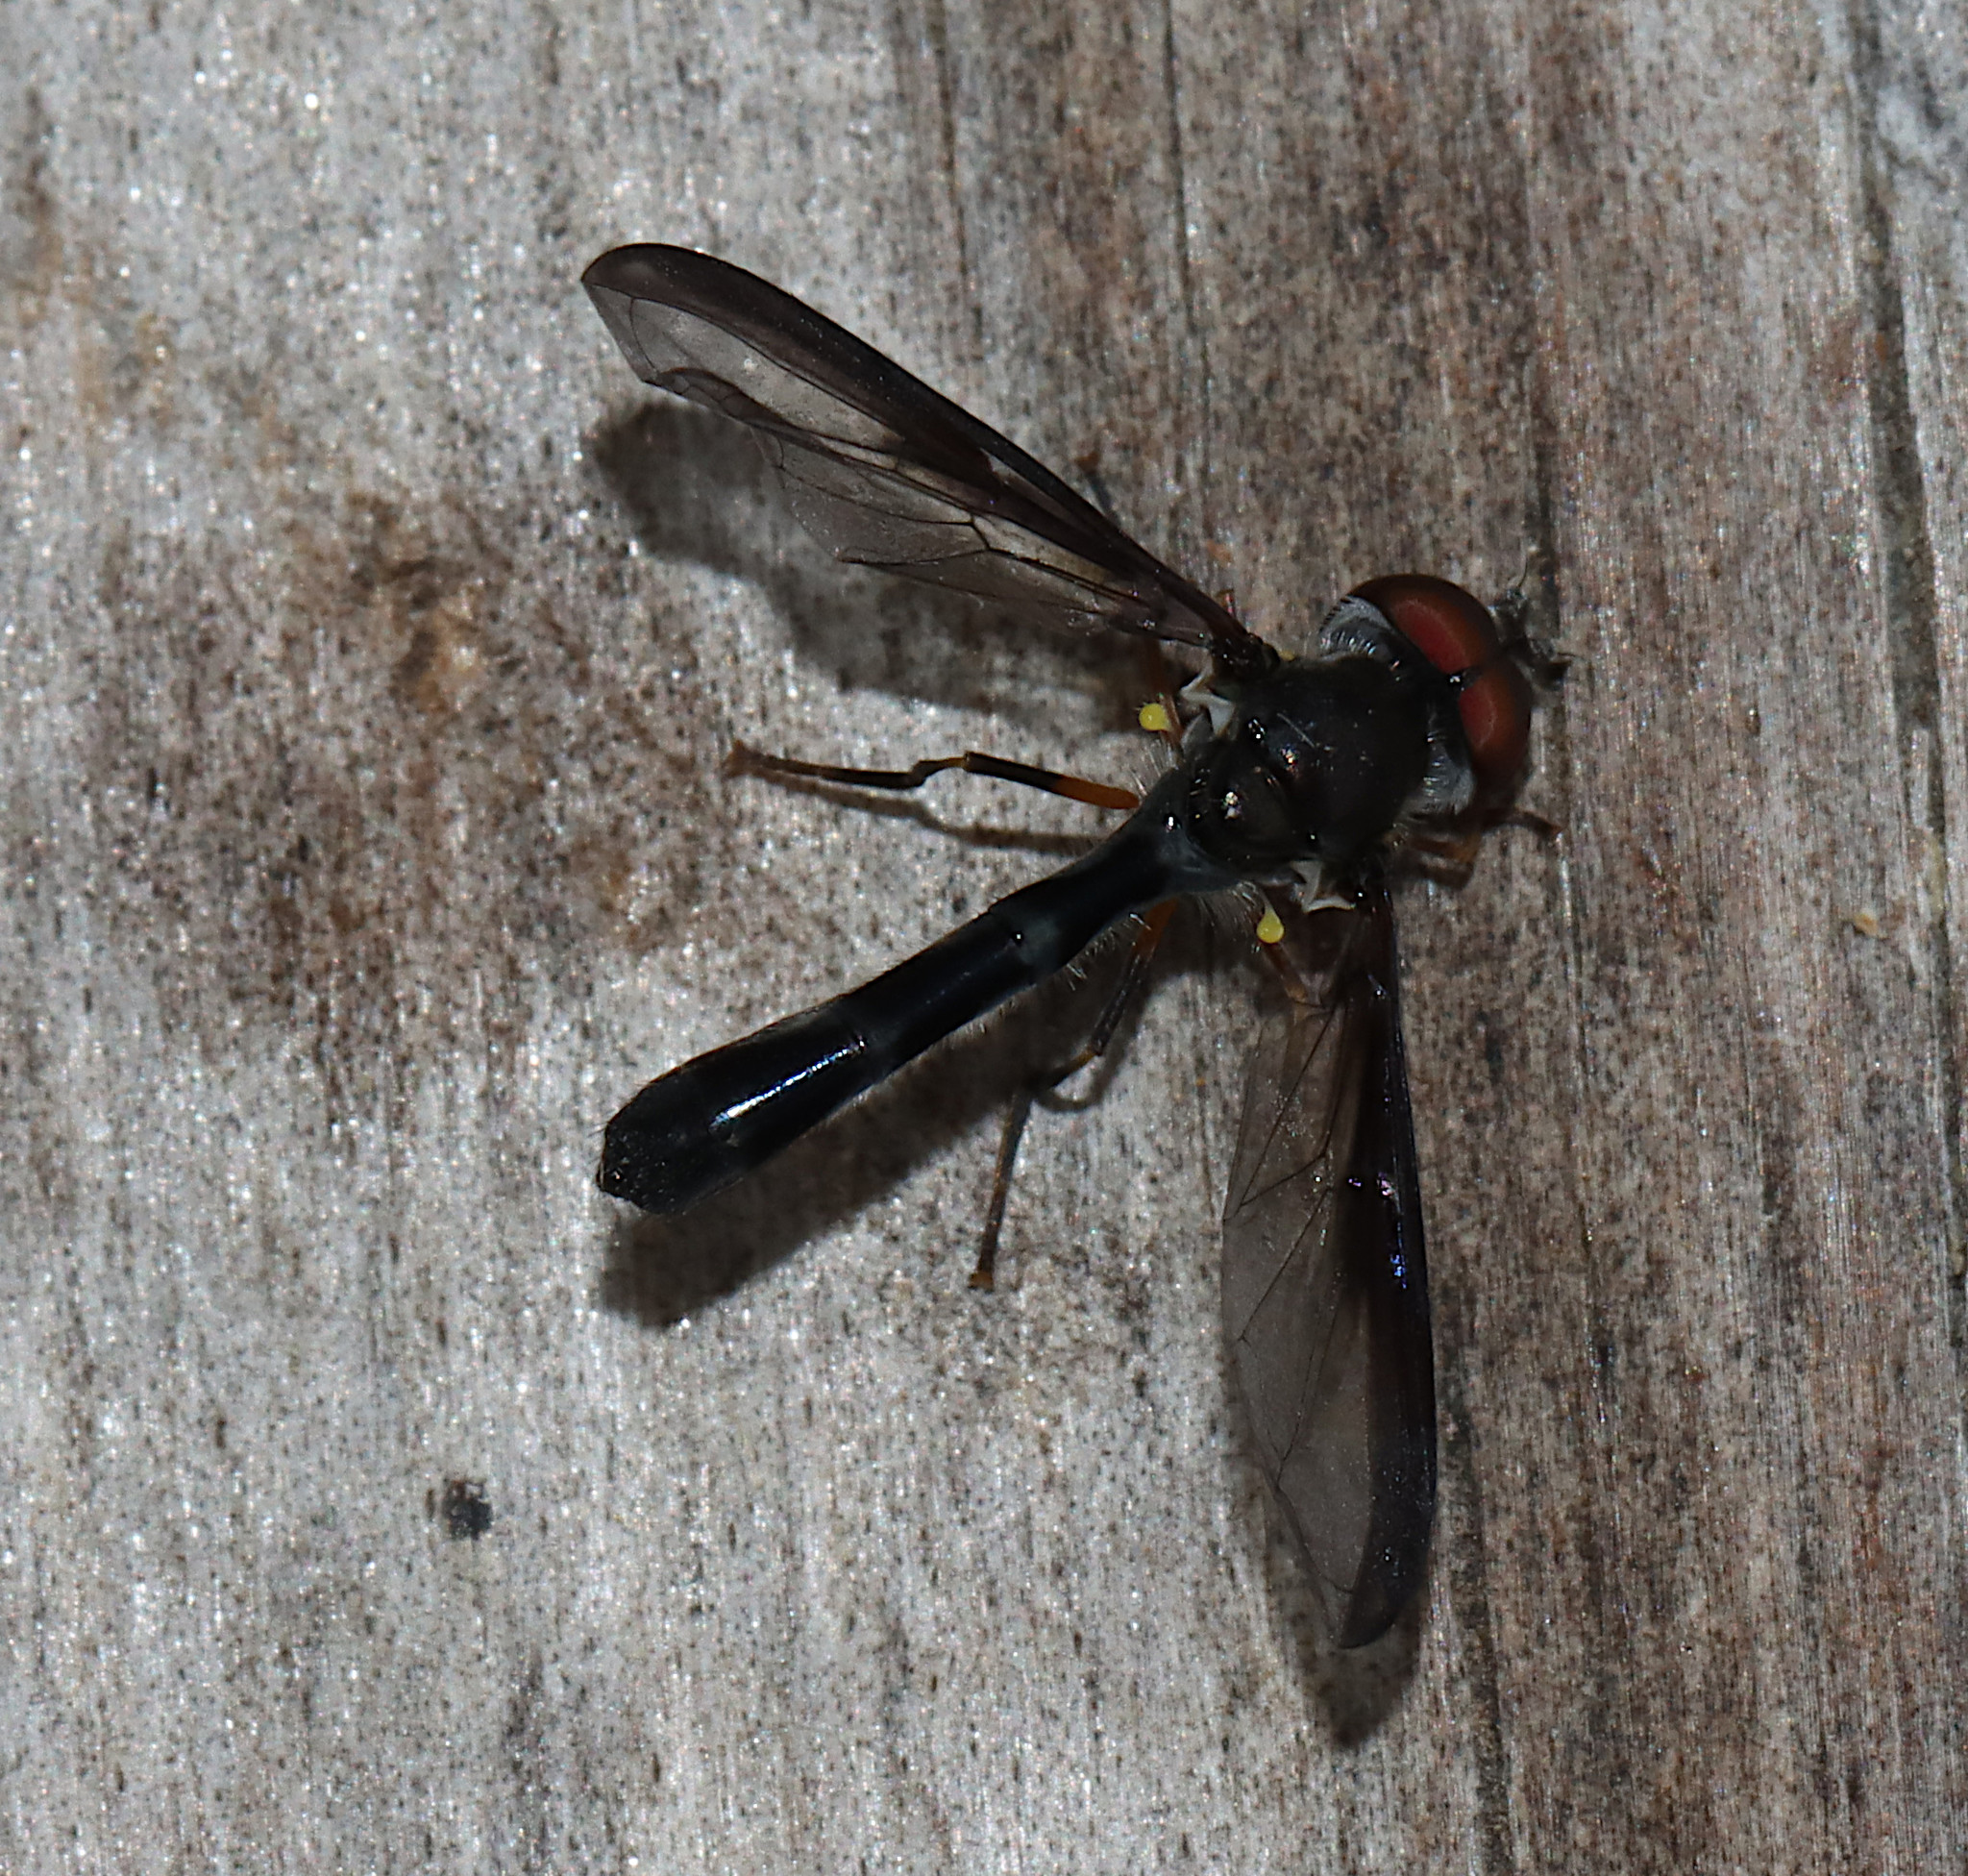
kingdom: Animalia
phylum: Arthropoda
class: Insecta
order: Diptera
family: Syrphidae
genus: Ocyptamus
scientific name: Ocyptamus costatus
